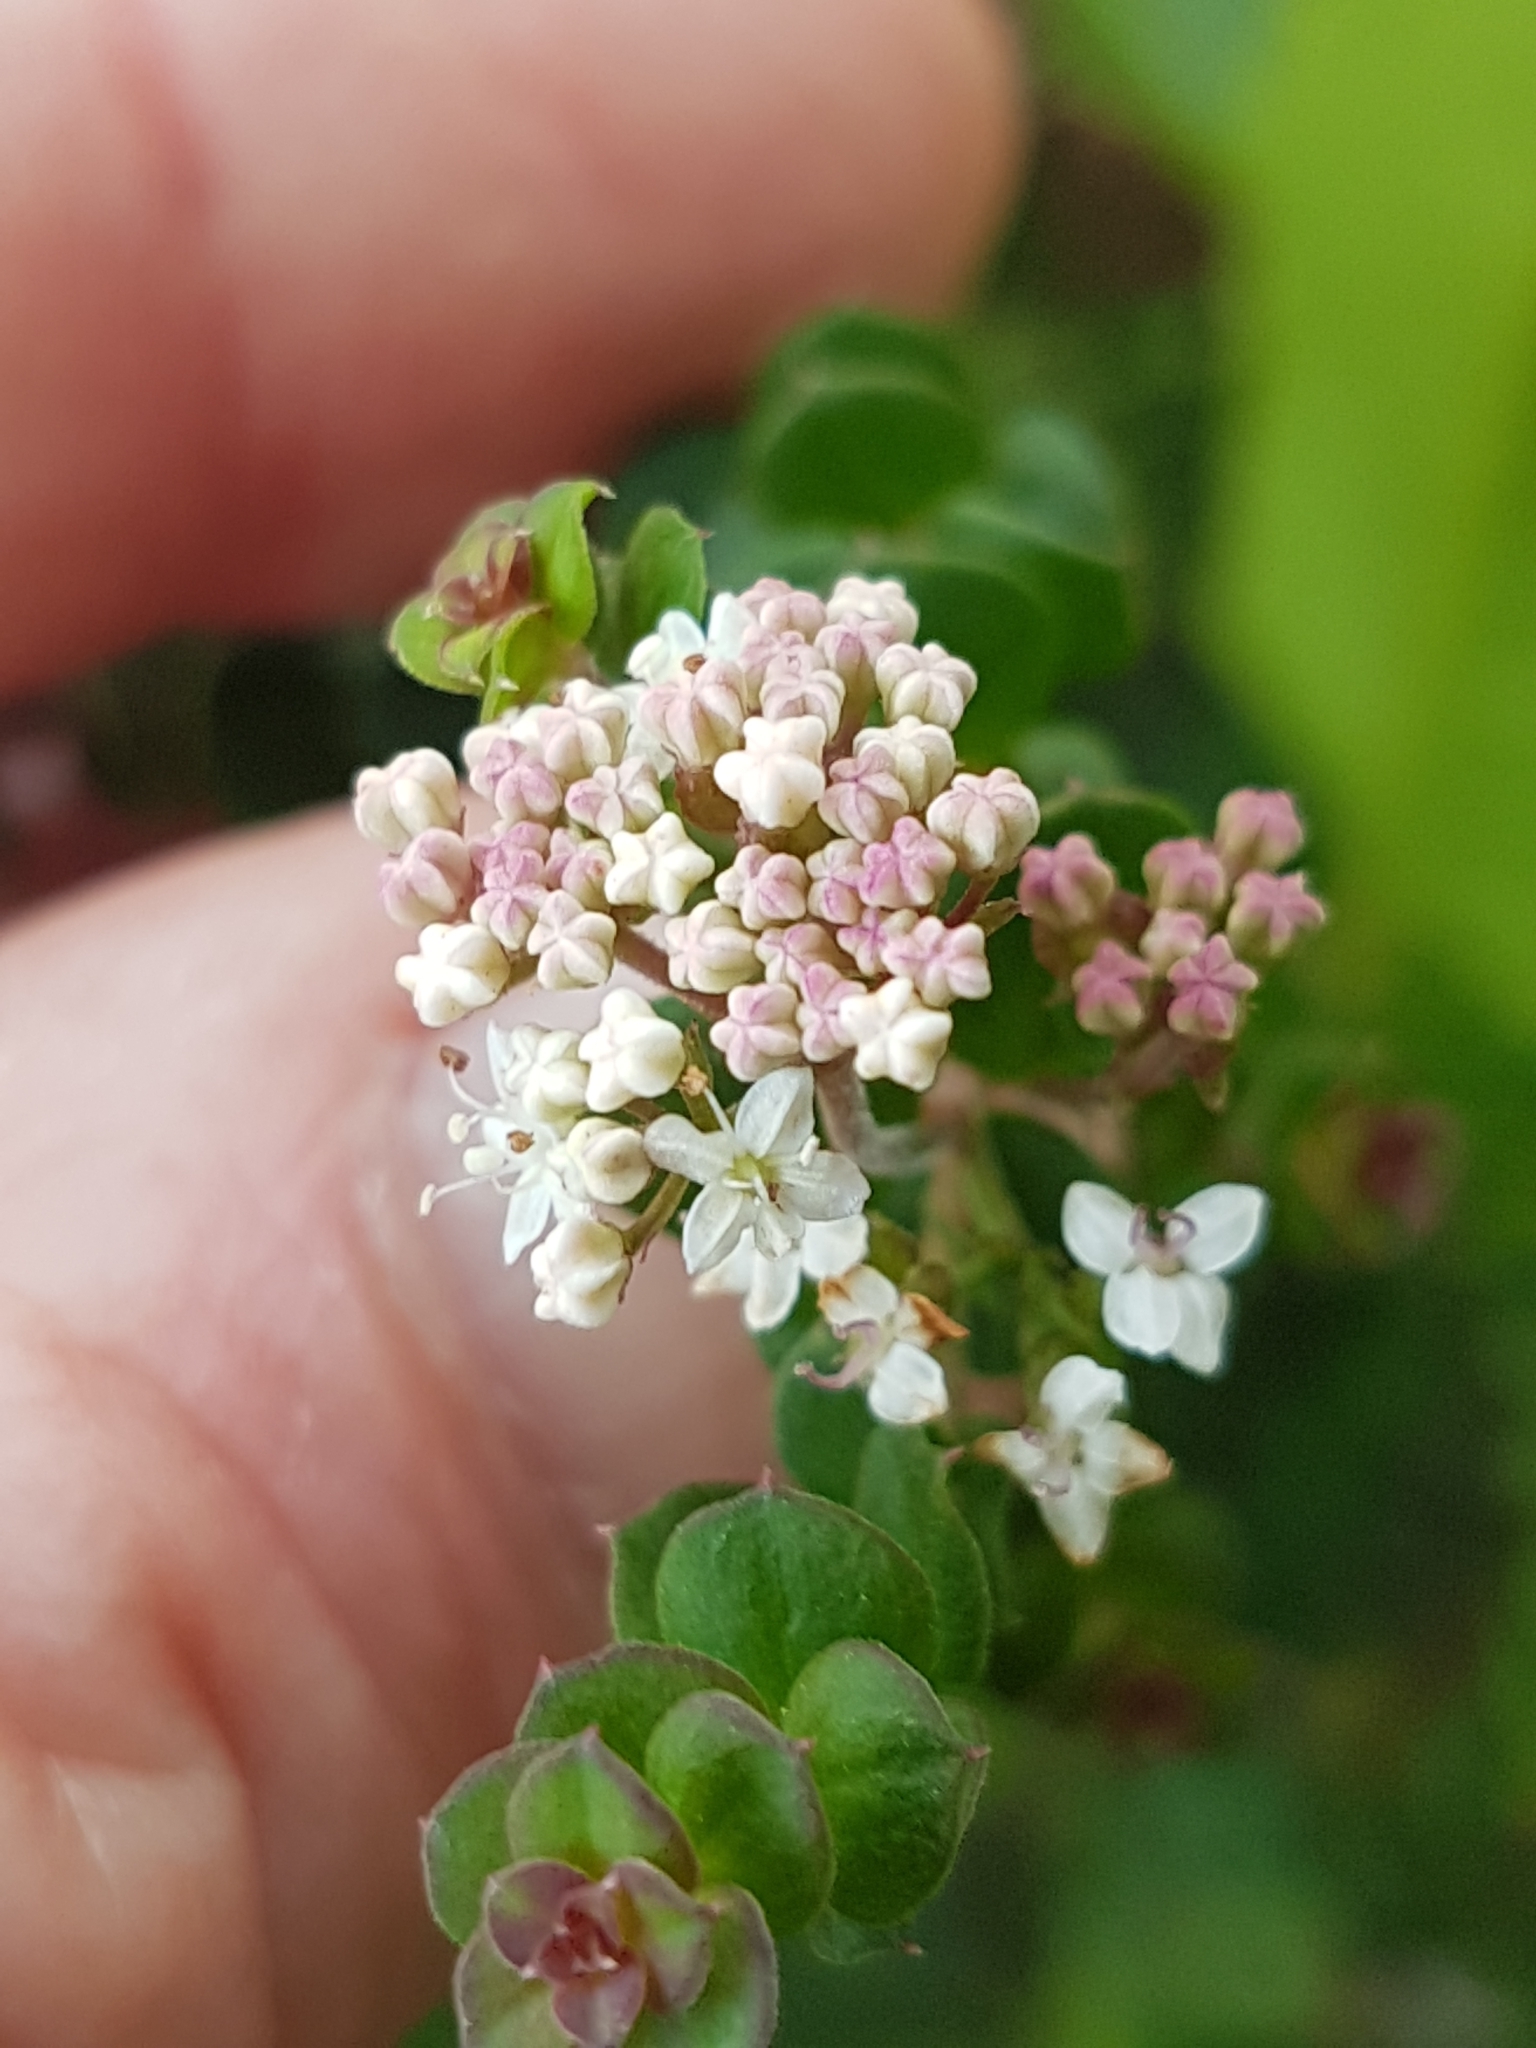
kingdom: Plantae
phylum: Tracheophyta
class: Magnoliopsida
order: Apiales
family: Apiaceae
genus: Platysace
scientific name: Platysace lanceolata
